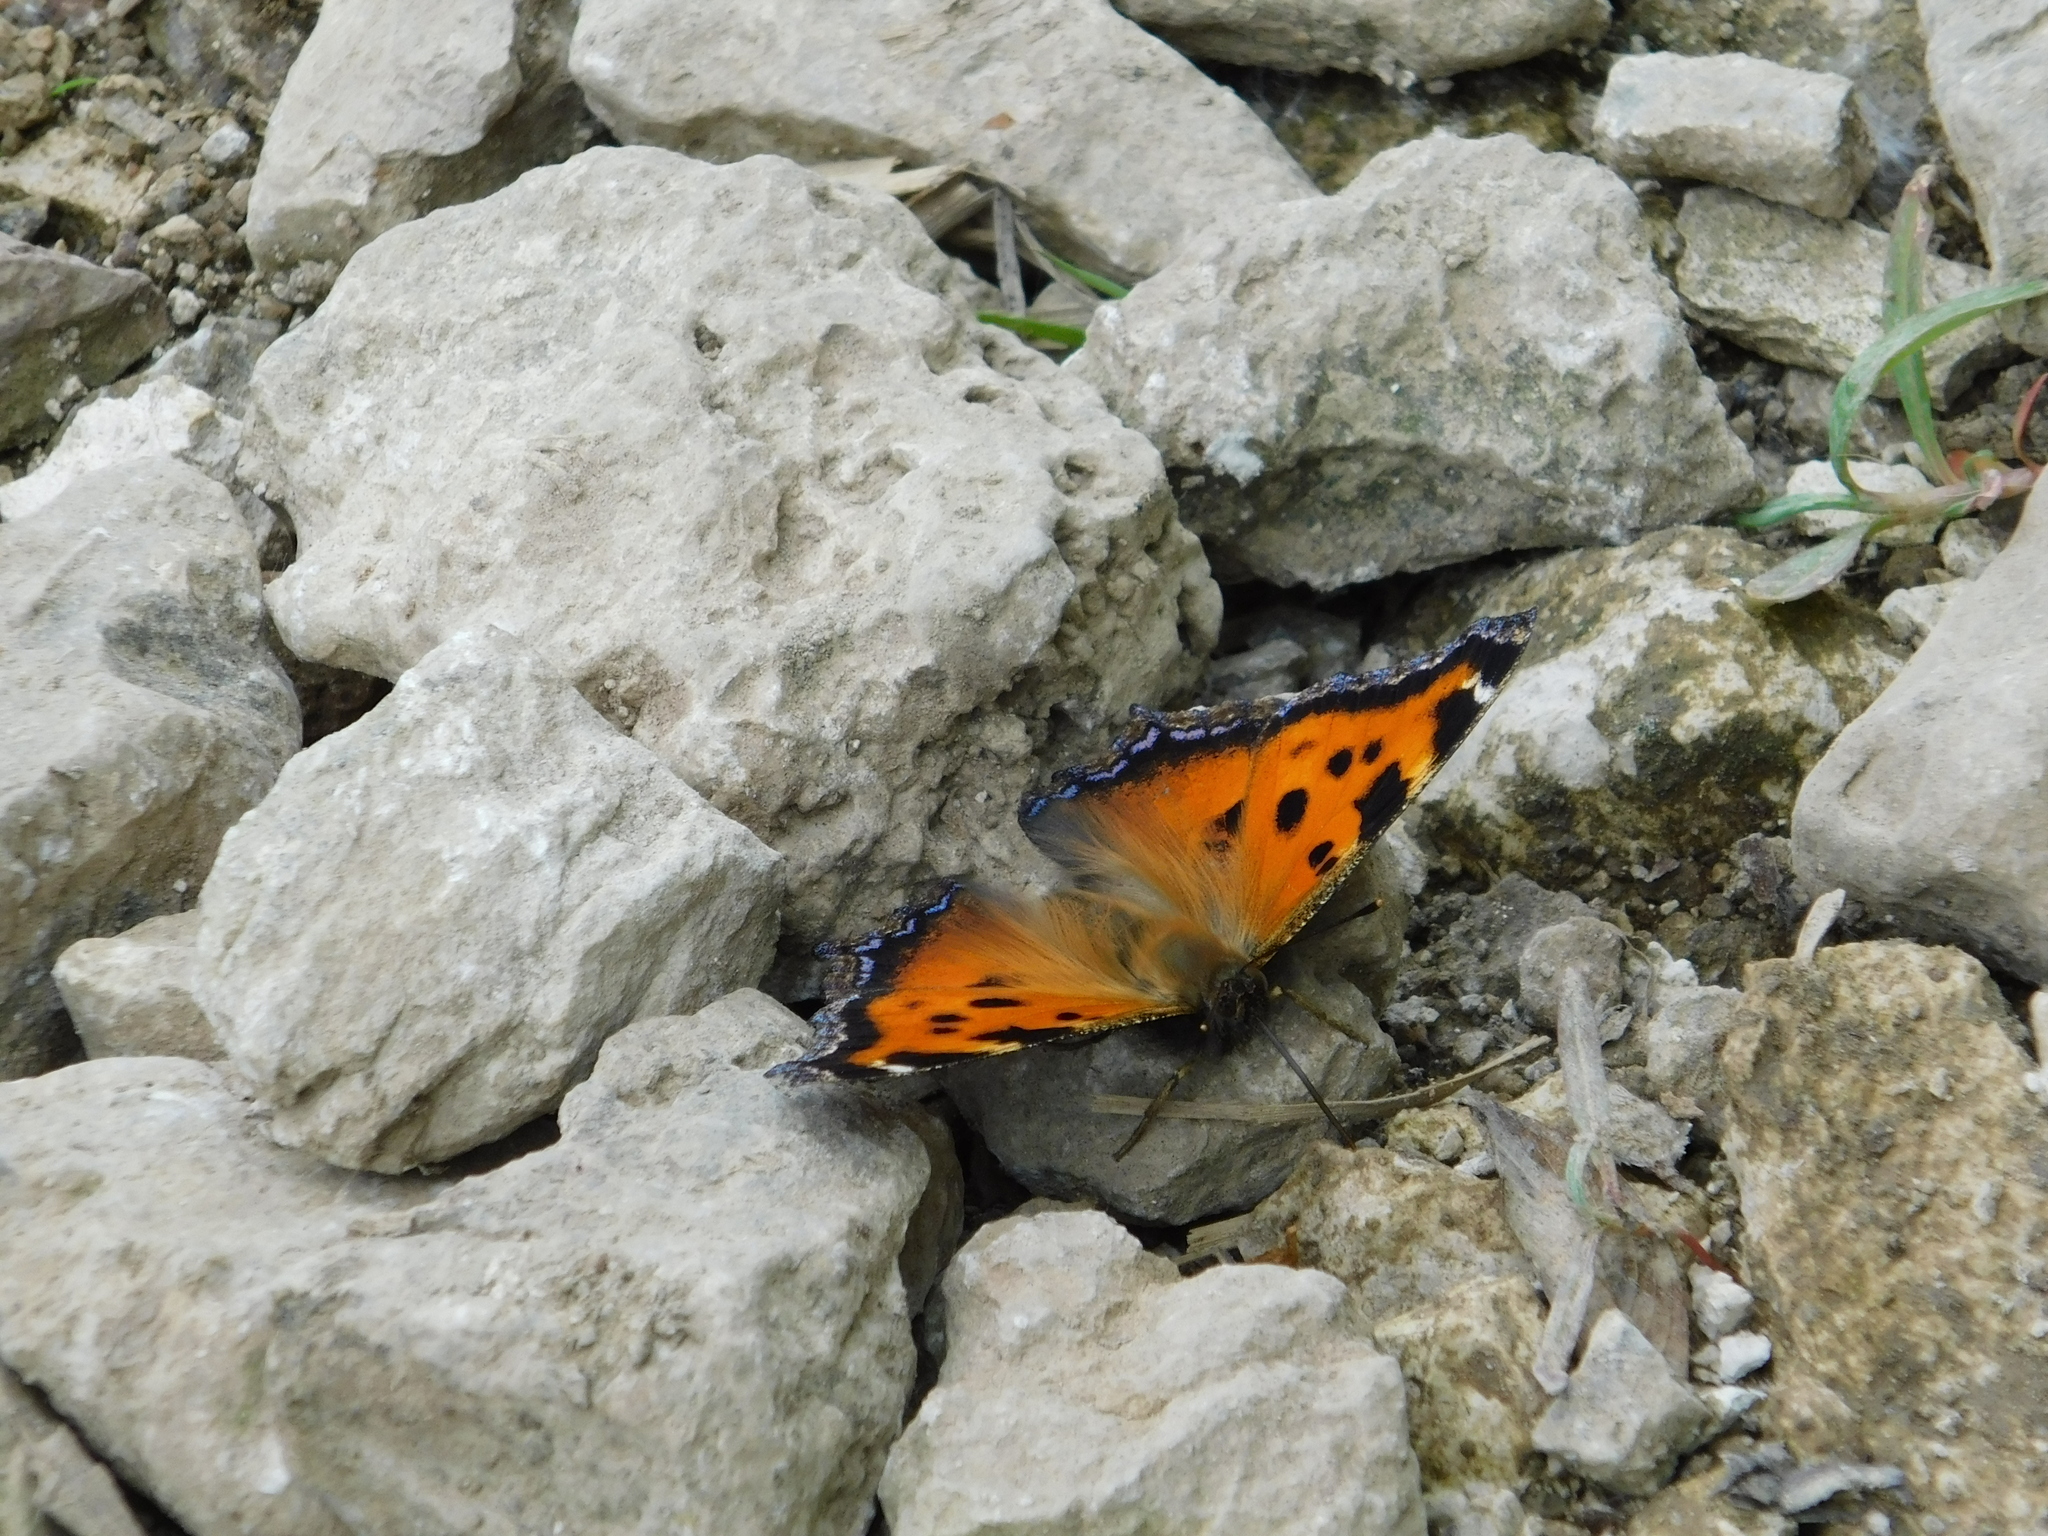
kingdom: Animalia
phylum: Arthropoda
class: Insecta
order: Lepidoptera
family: Nymphalidae
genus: Nymphalis
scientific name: Nymphalis xanthomelas
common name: Scarce tortoiseshell
